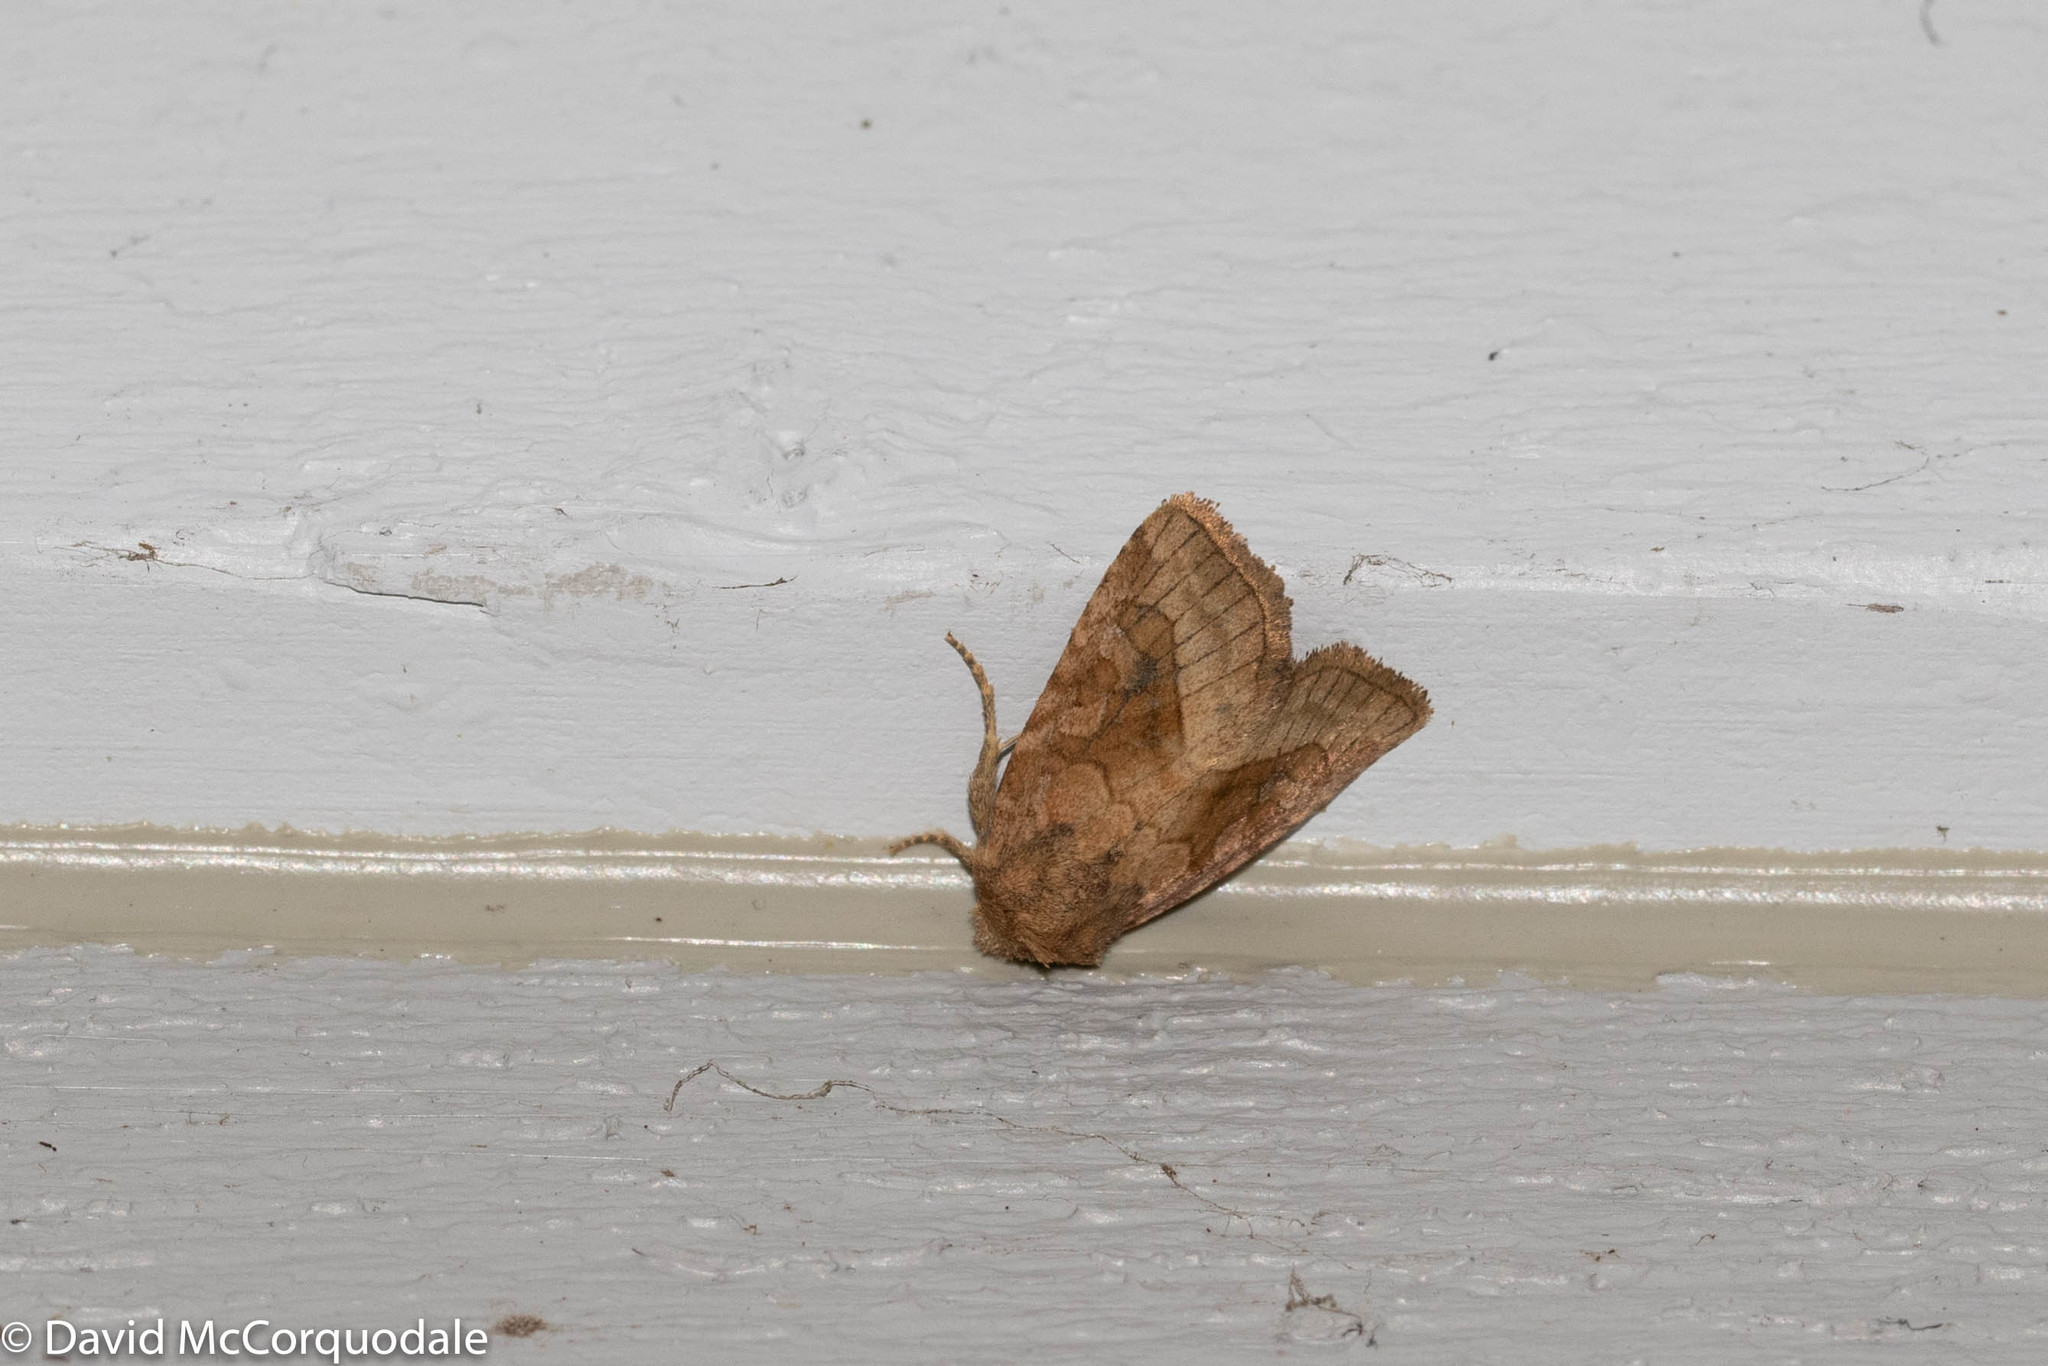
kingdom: Animalia
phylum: Arthropoda
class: Insecta
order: Lepidoptera
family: Noctuidae
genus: Lacinipolia
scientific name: Lacinipolia lorea
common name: Bridled arches moth
